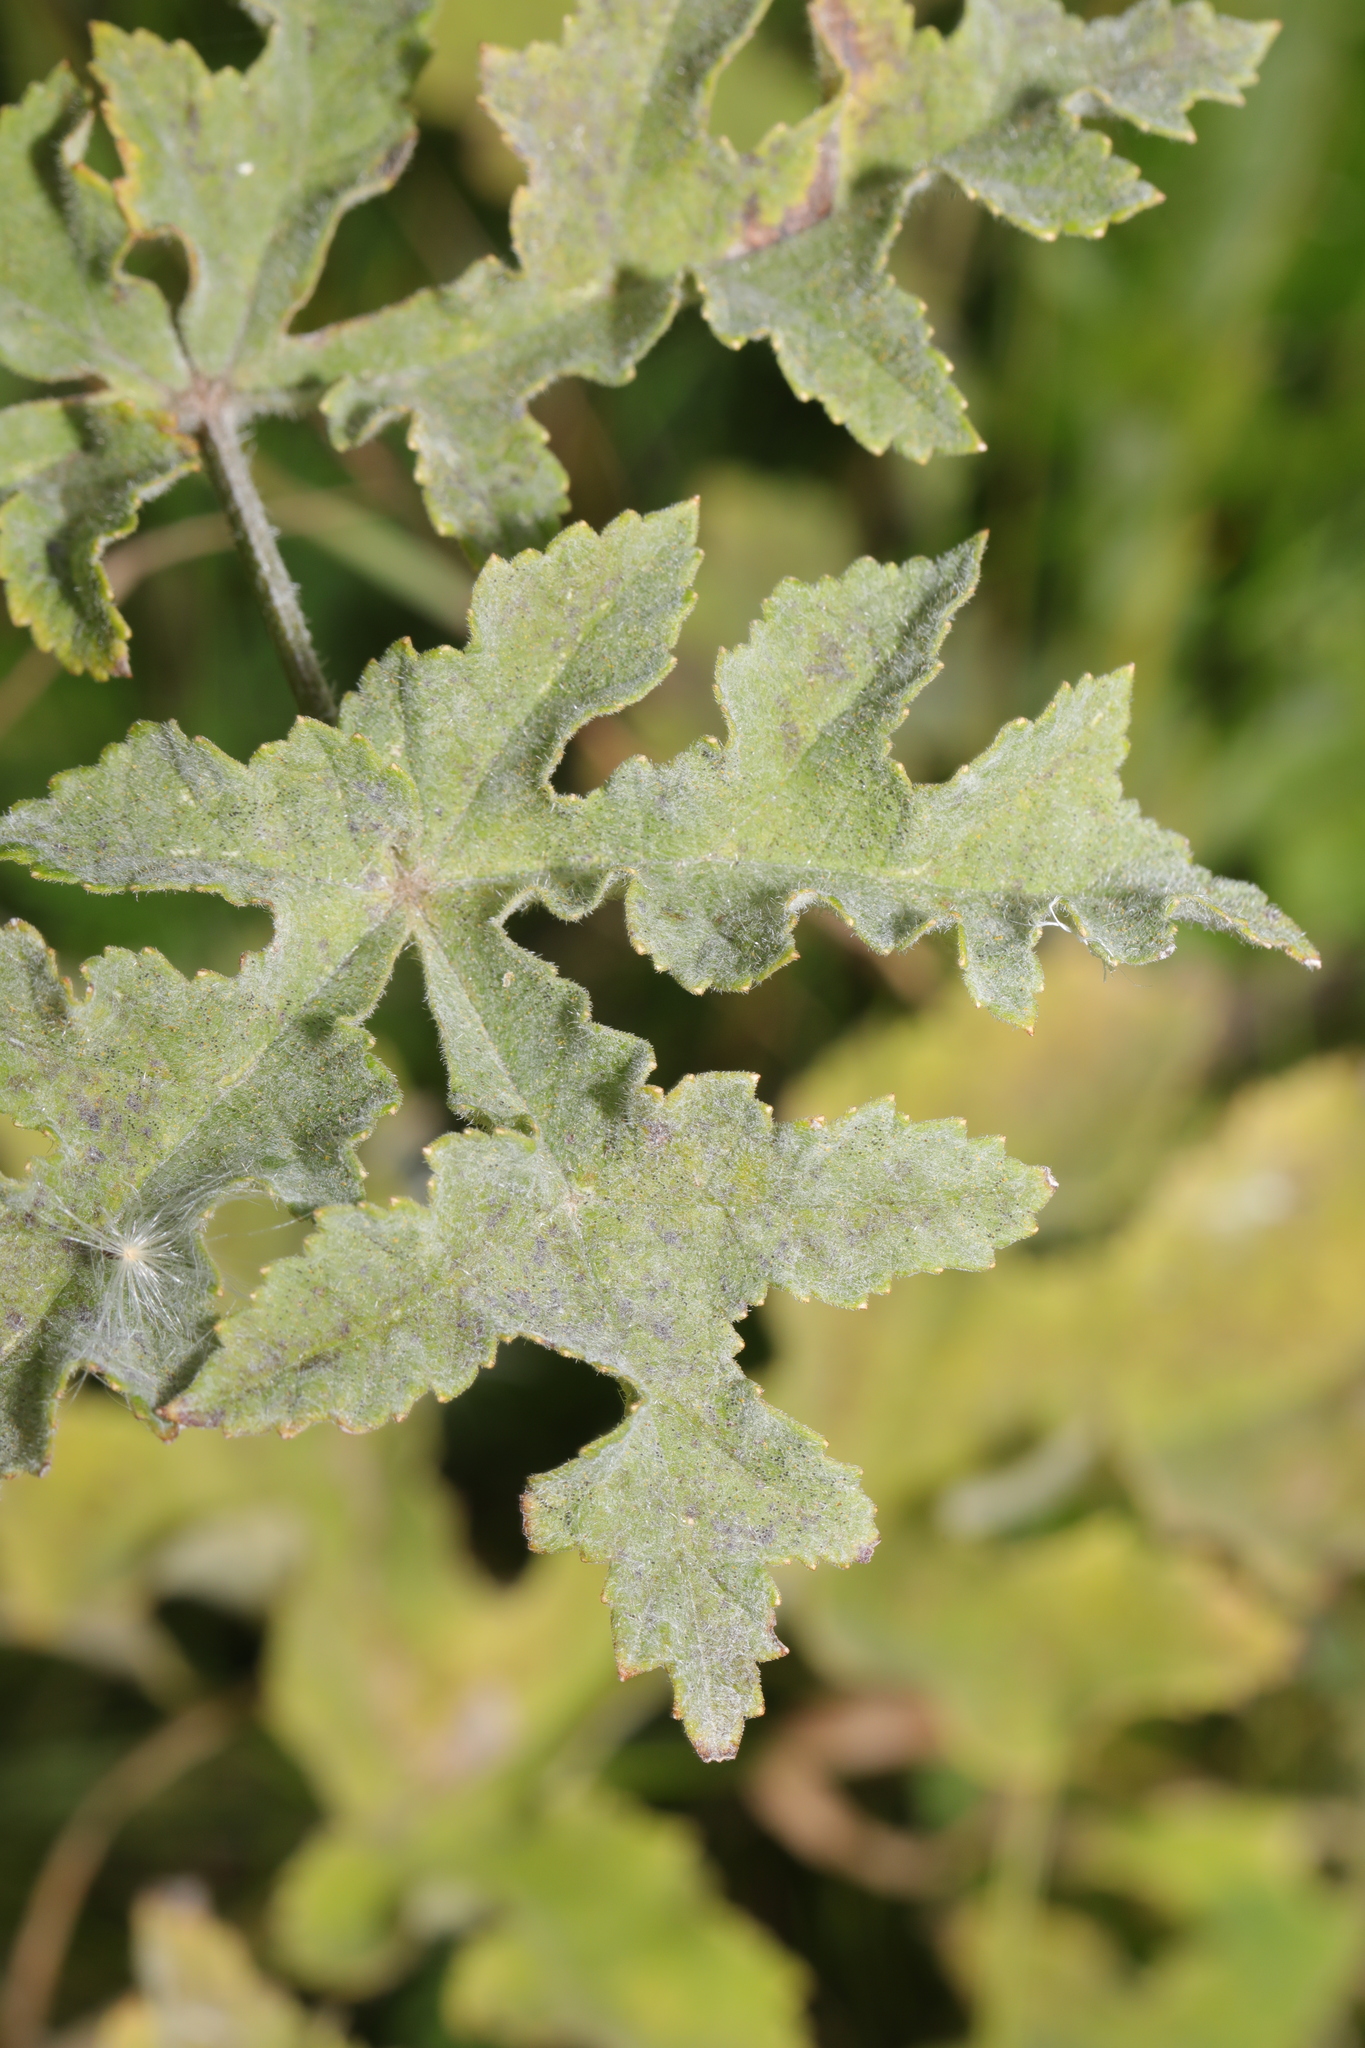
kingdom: Fungi
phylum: Ascomycota
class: Leotiomycetes
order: Helotiales
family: Erysiphaceae
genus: Erysiphe
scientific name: Erysiphe heraclei
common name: Umbellifer mildew
